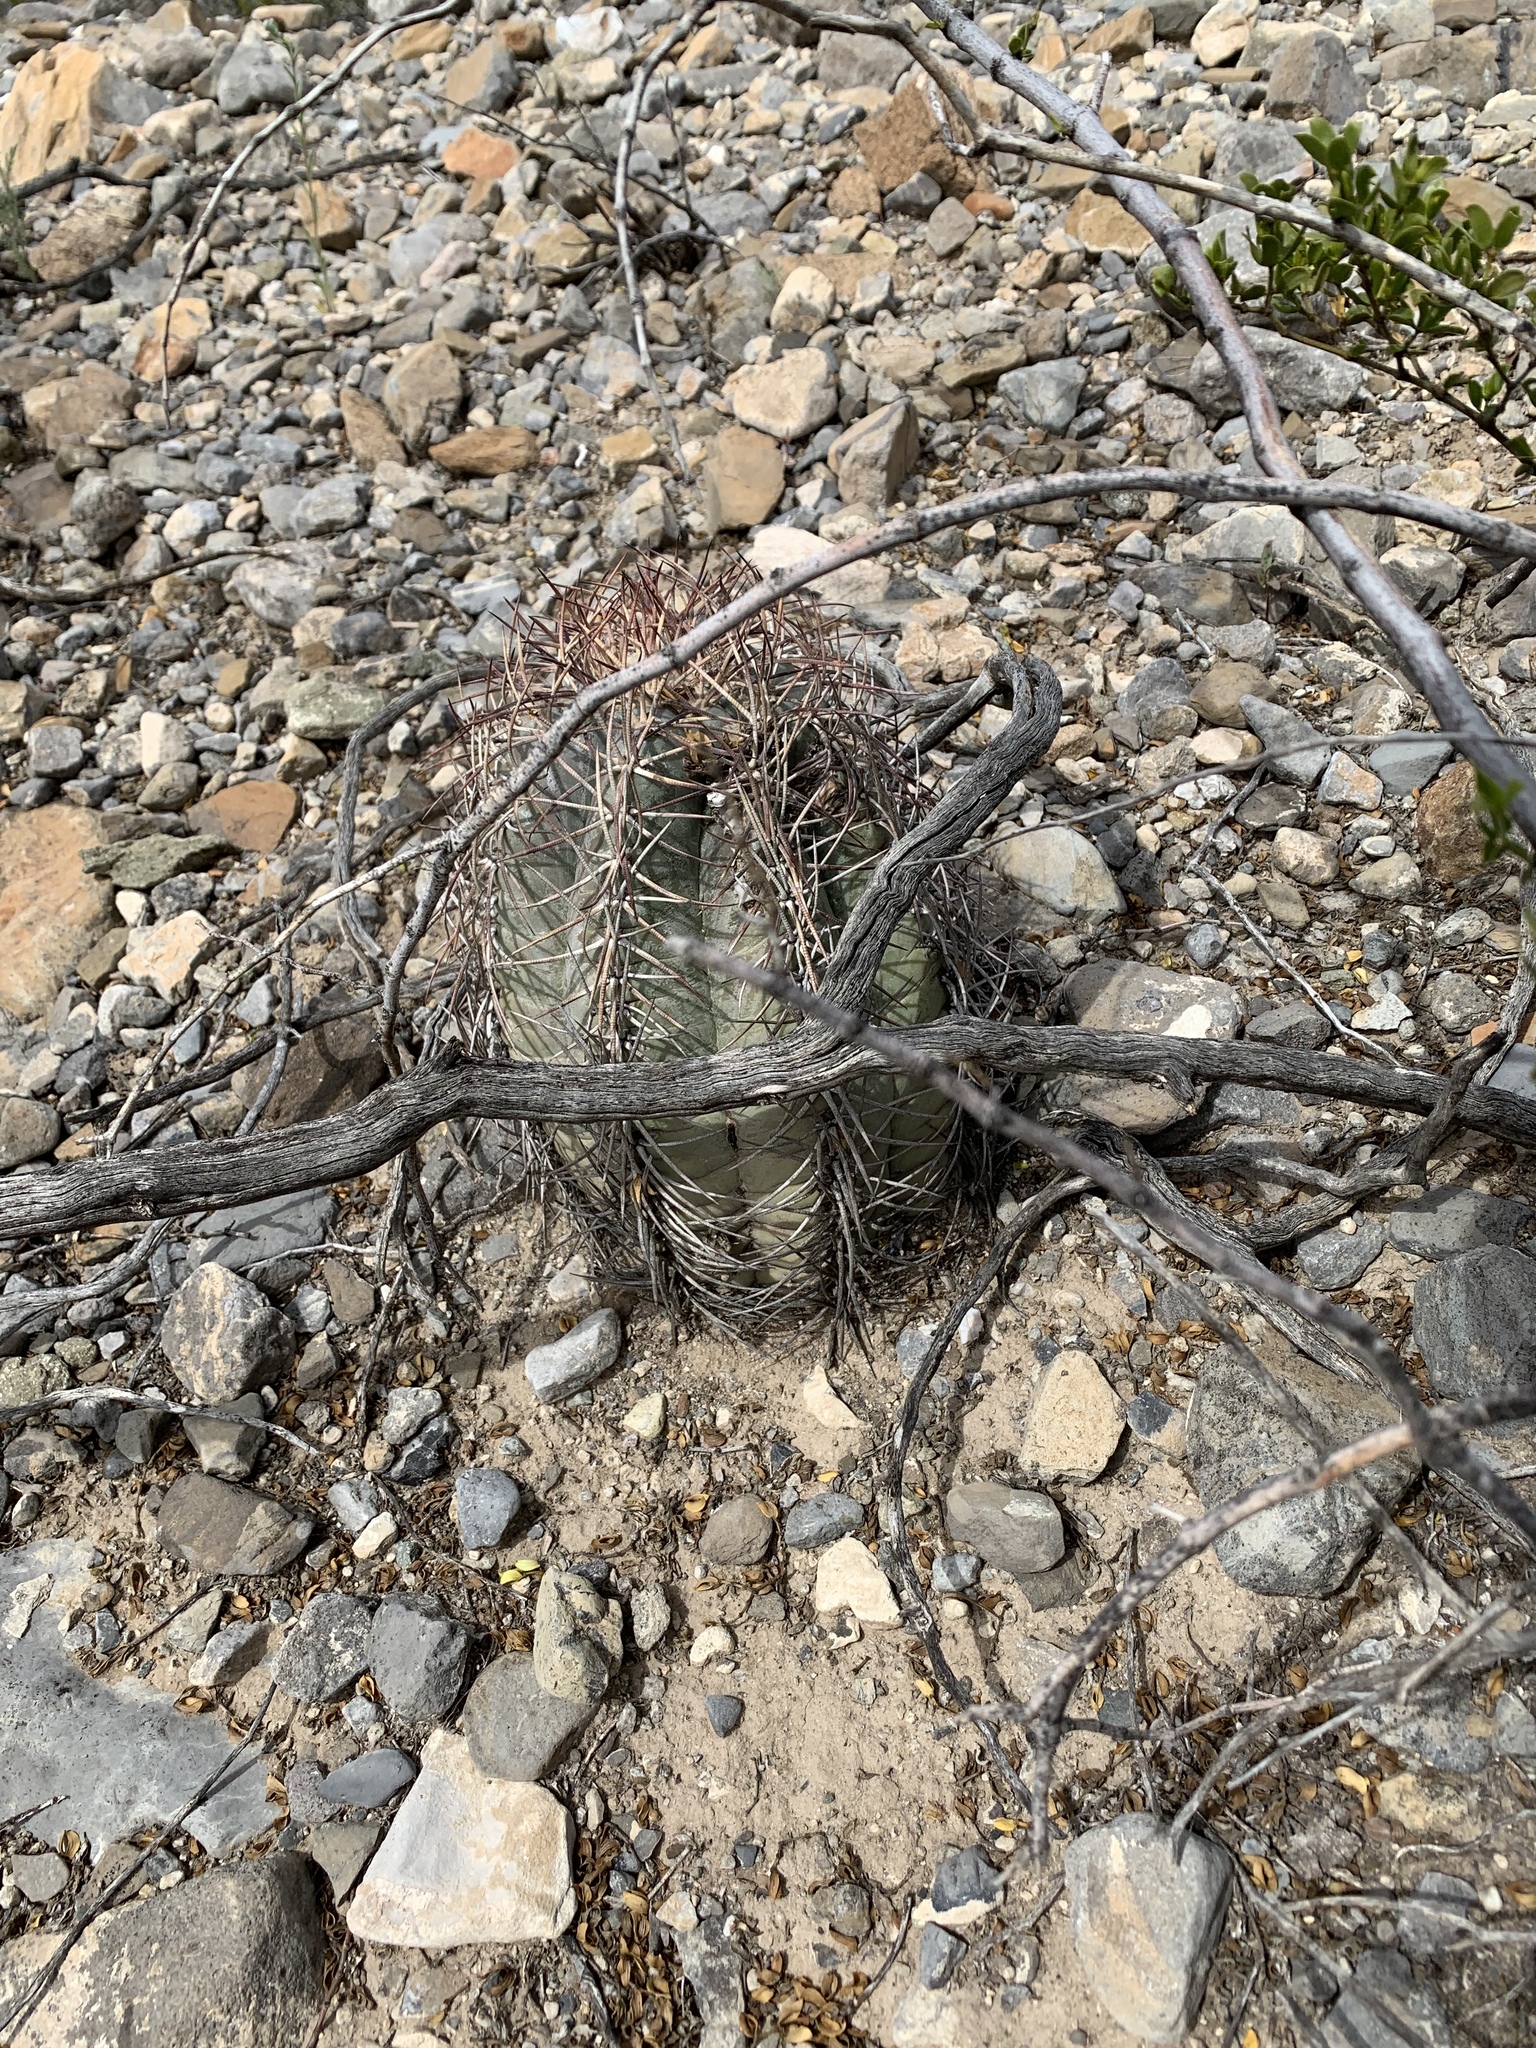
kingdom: Plantae
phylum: Tracheophyta
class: Magnoliopsida
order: Caryophyllales
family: Cactaceae
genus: Echinocactus
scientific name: Echinocactus horizonthalonius
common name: Devilshead
